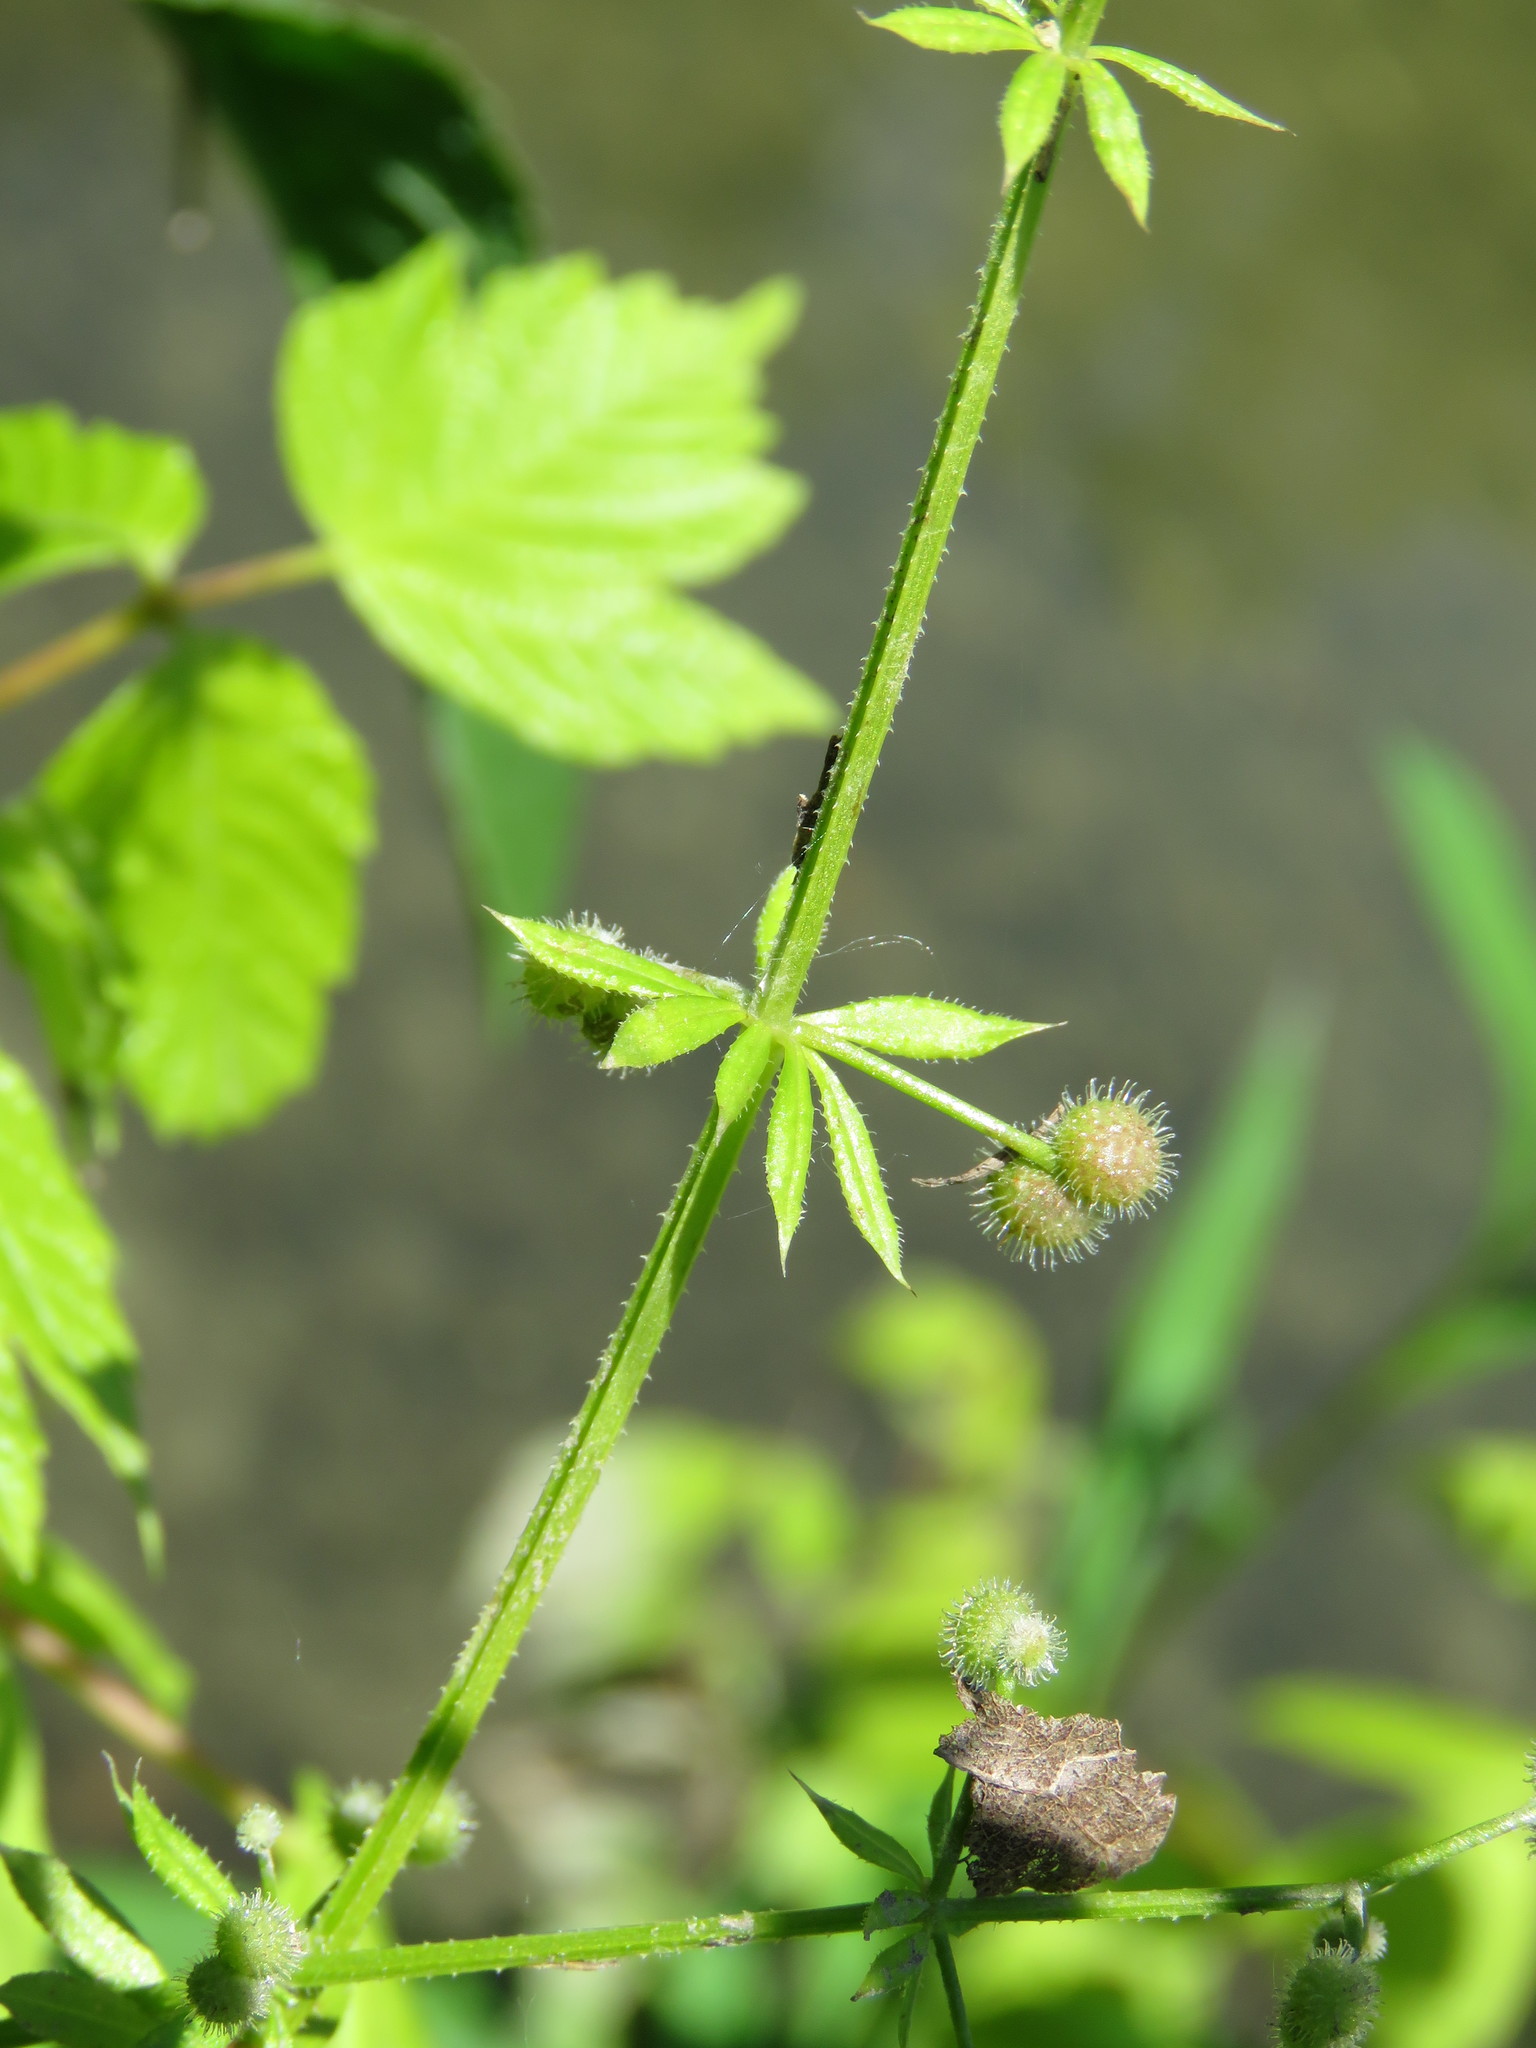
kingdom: Plantae
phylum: Tracheophyta
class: Magnoliopsida
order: Gentianales
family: Rubiaceae
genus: Galium
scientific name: Galium aparine
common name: Cleavers
